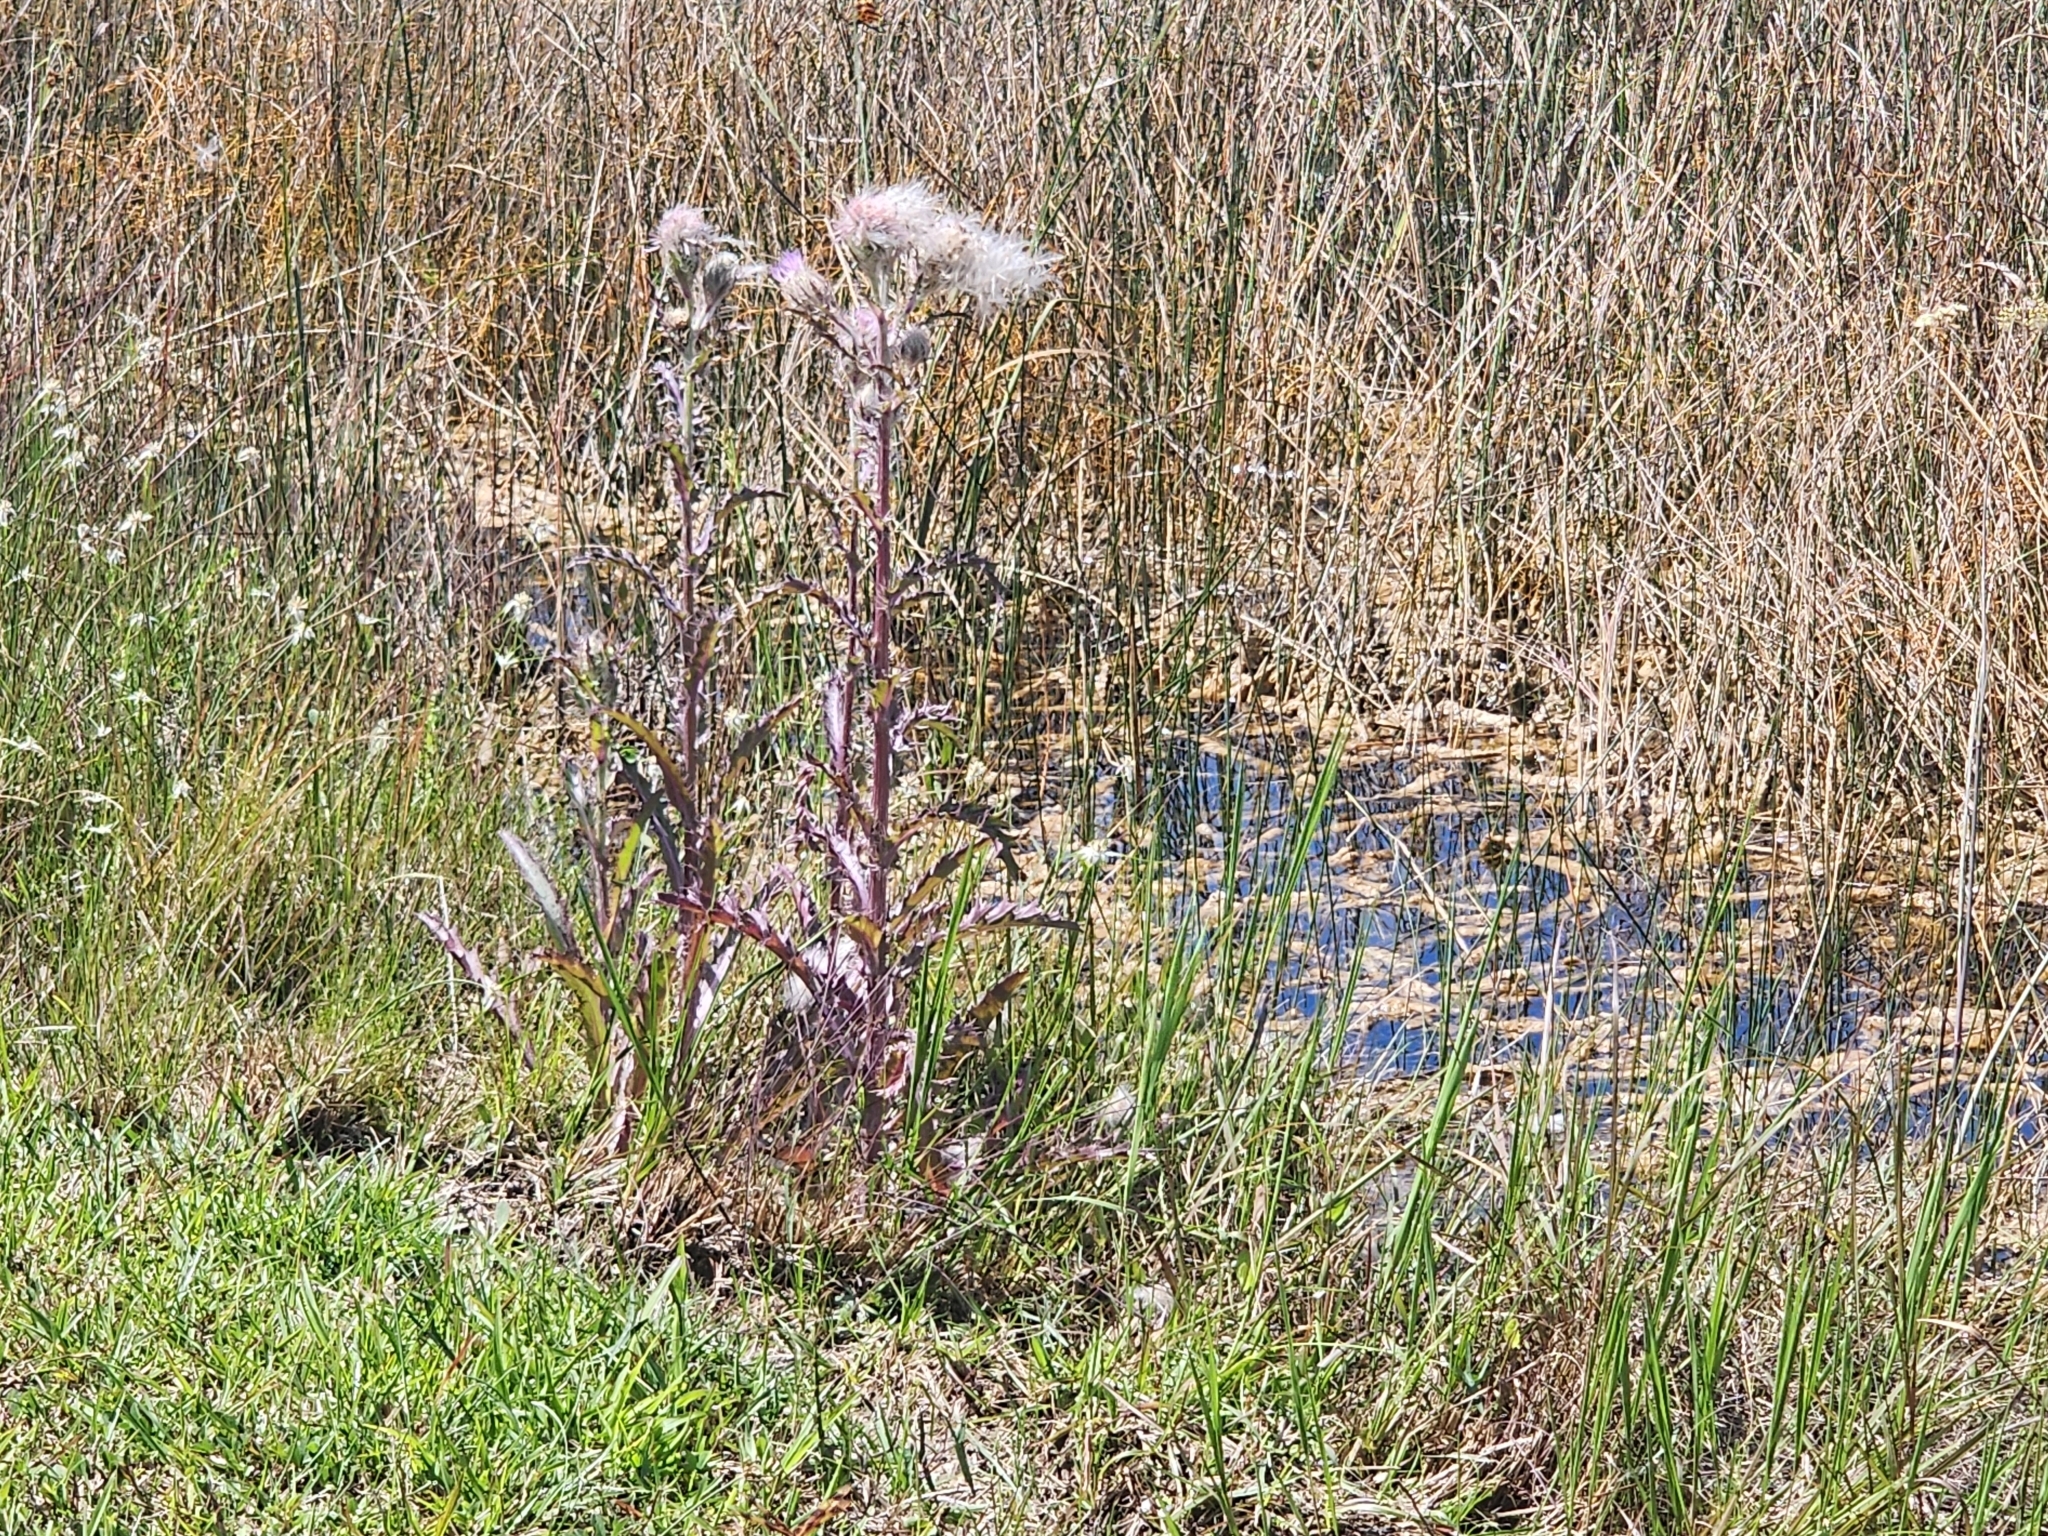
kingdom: Plantae
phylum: Tracheophyta
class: Magnoliopsida
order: Asterales
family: Asteraceae
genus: Cirsium
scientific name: Cirsium horridulum
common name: Bristly thistle
